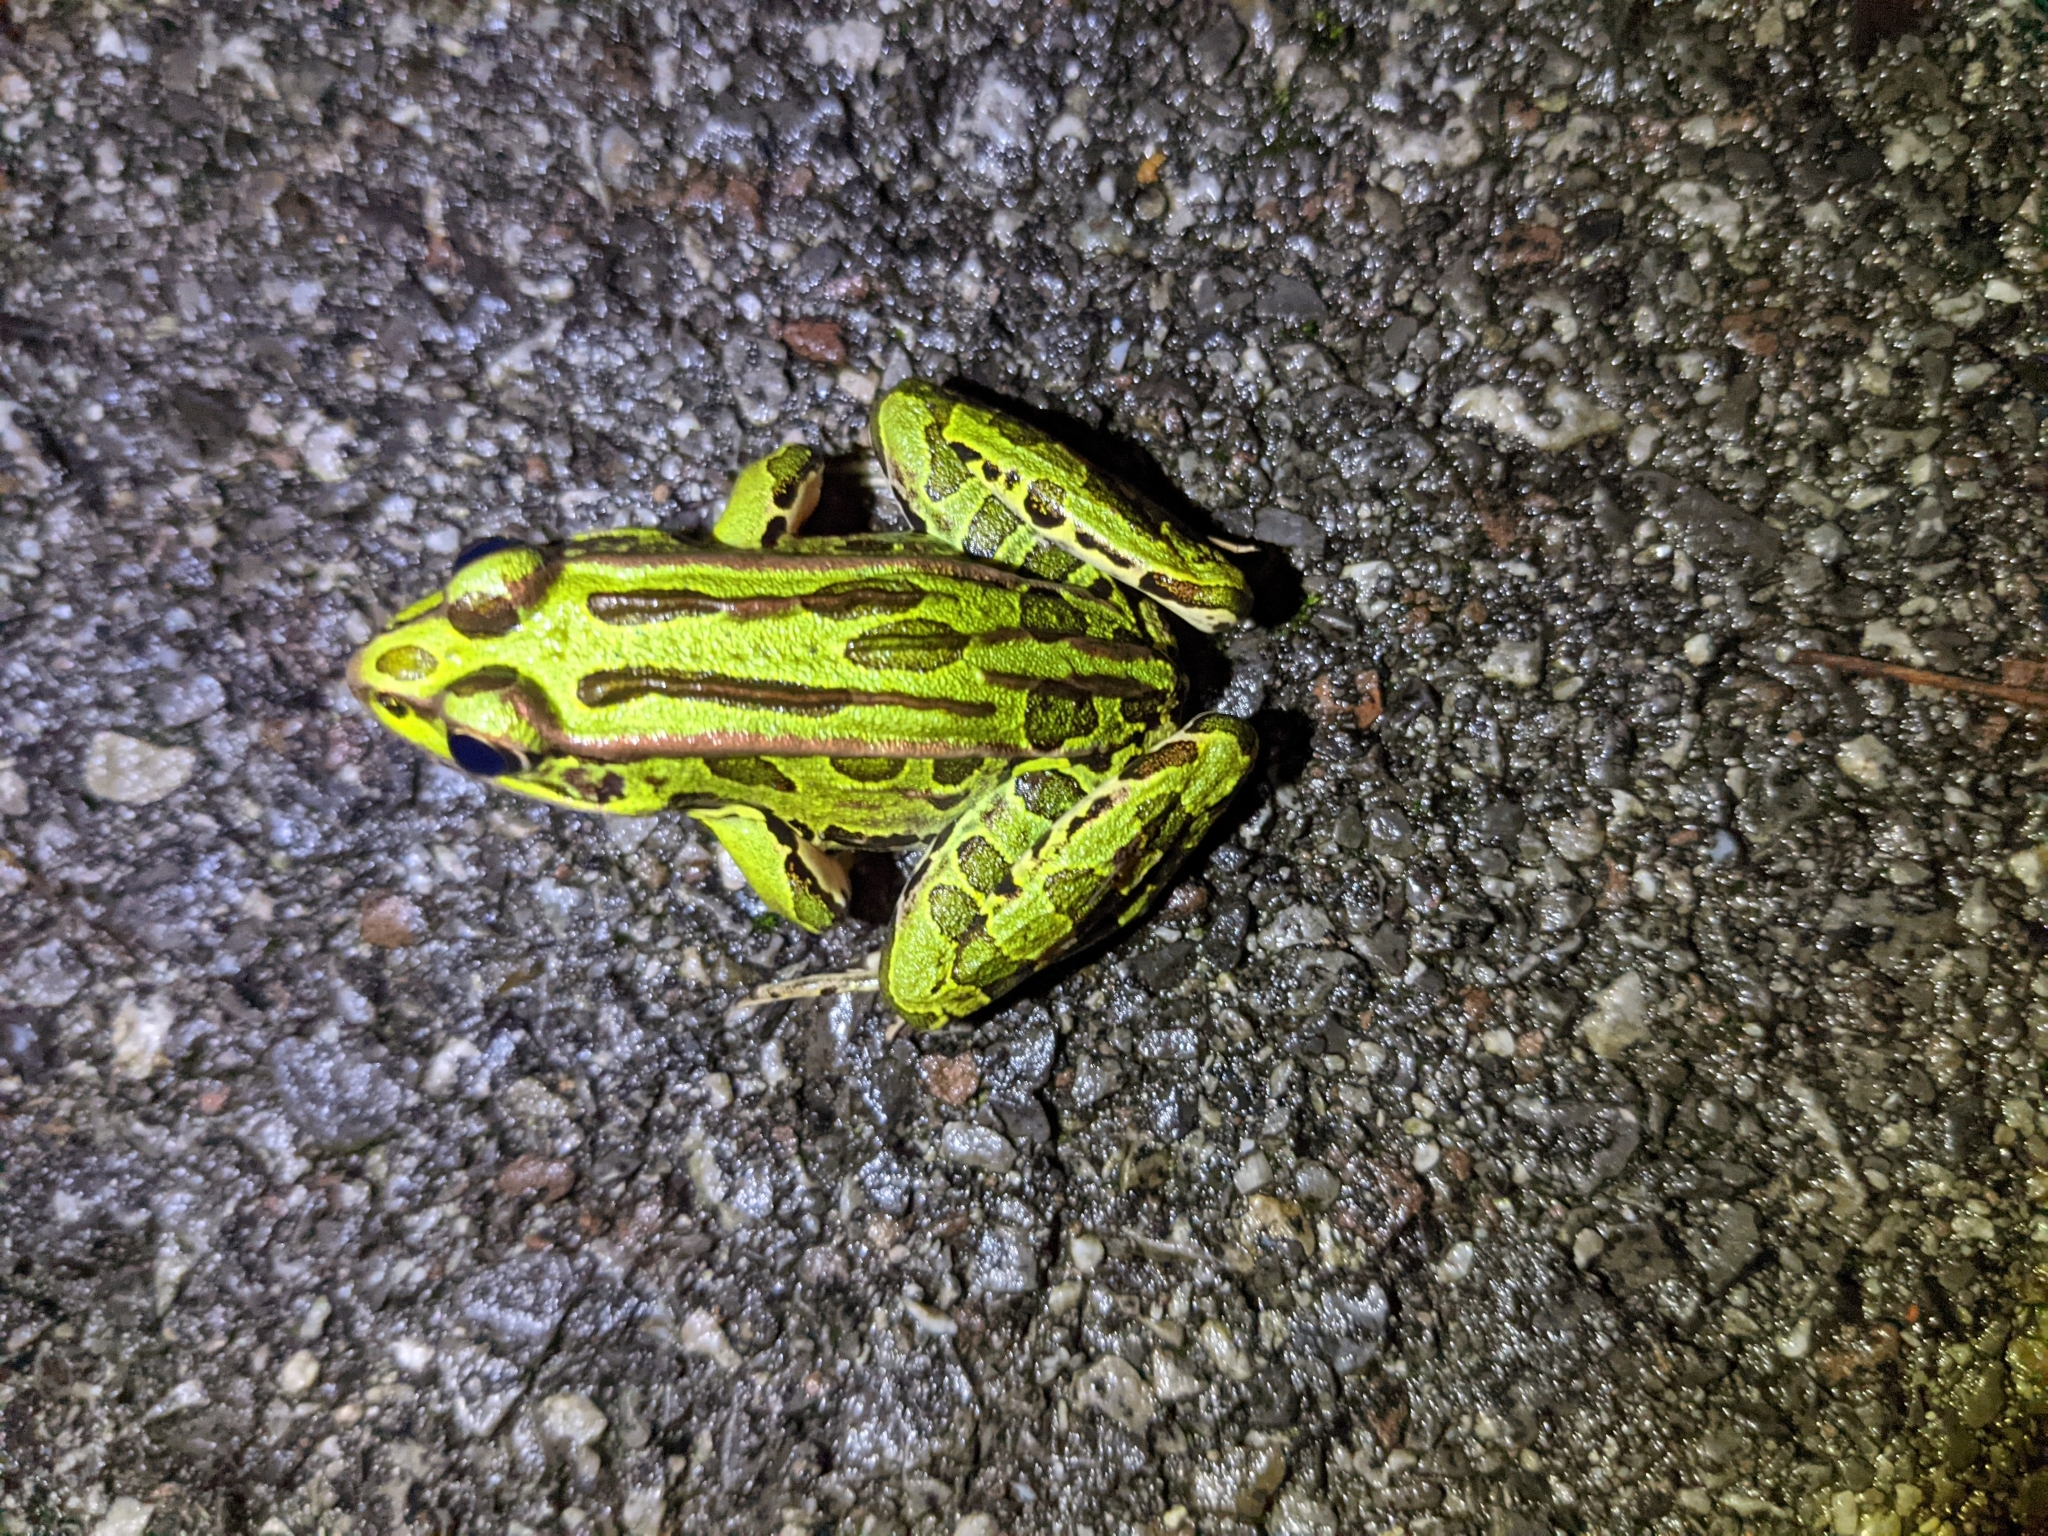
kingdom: Animalia
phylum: Chordata
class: Amphibia
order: Anura
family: Ranidae
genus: Lithobates
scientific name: Lithobates pipiens
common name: Northern leopard frog
